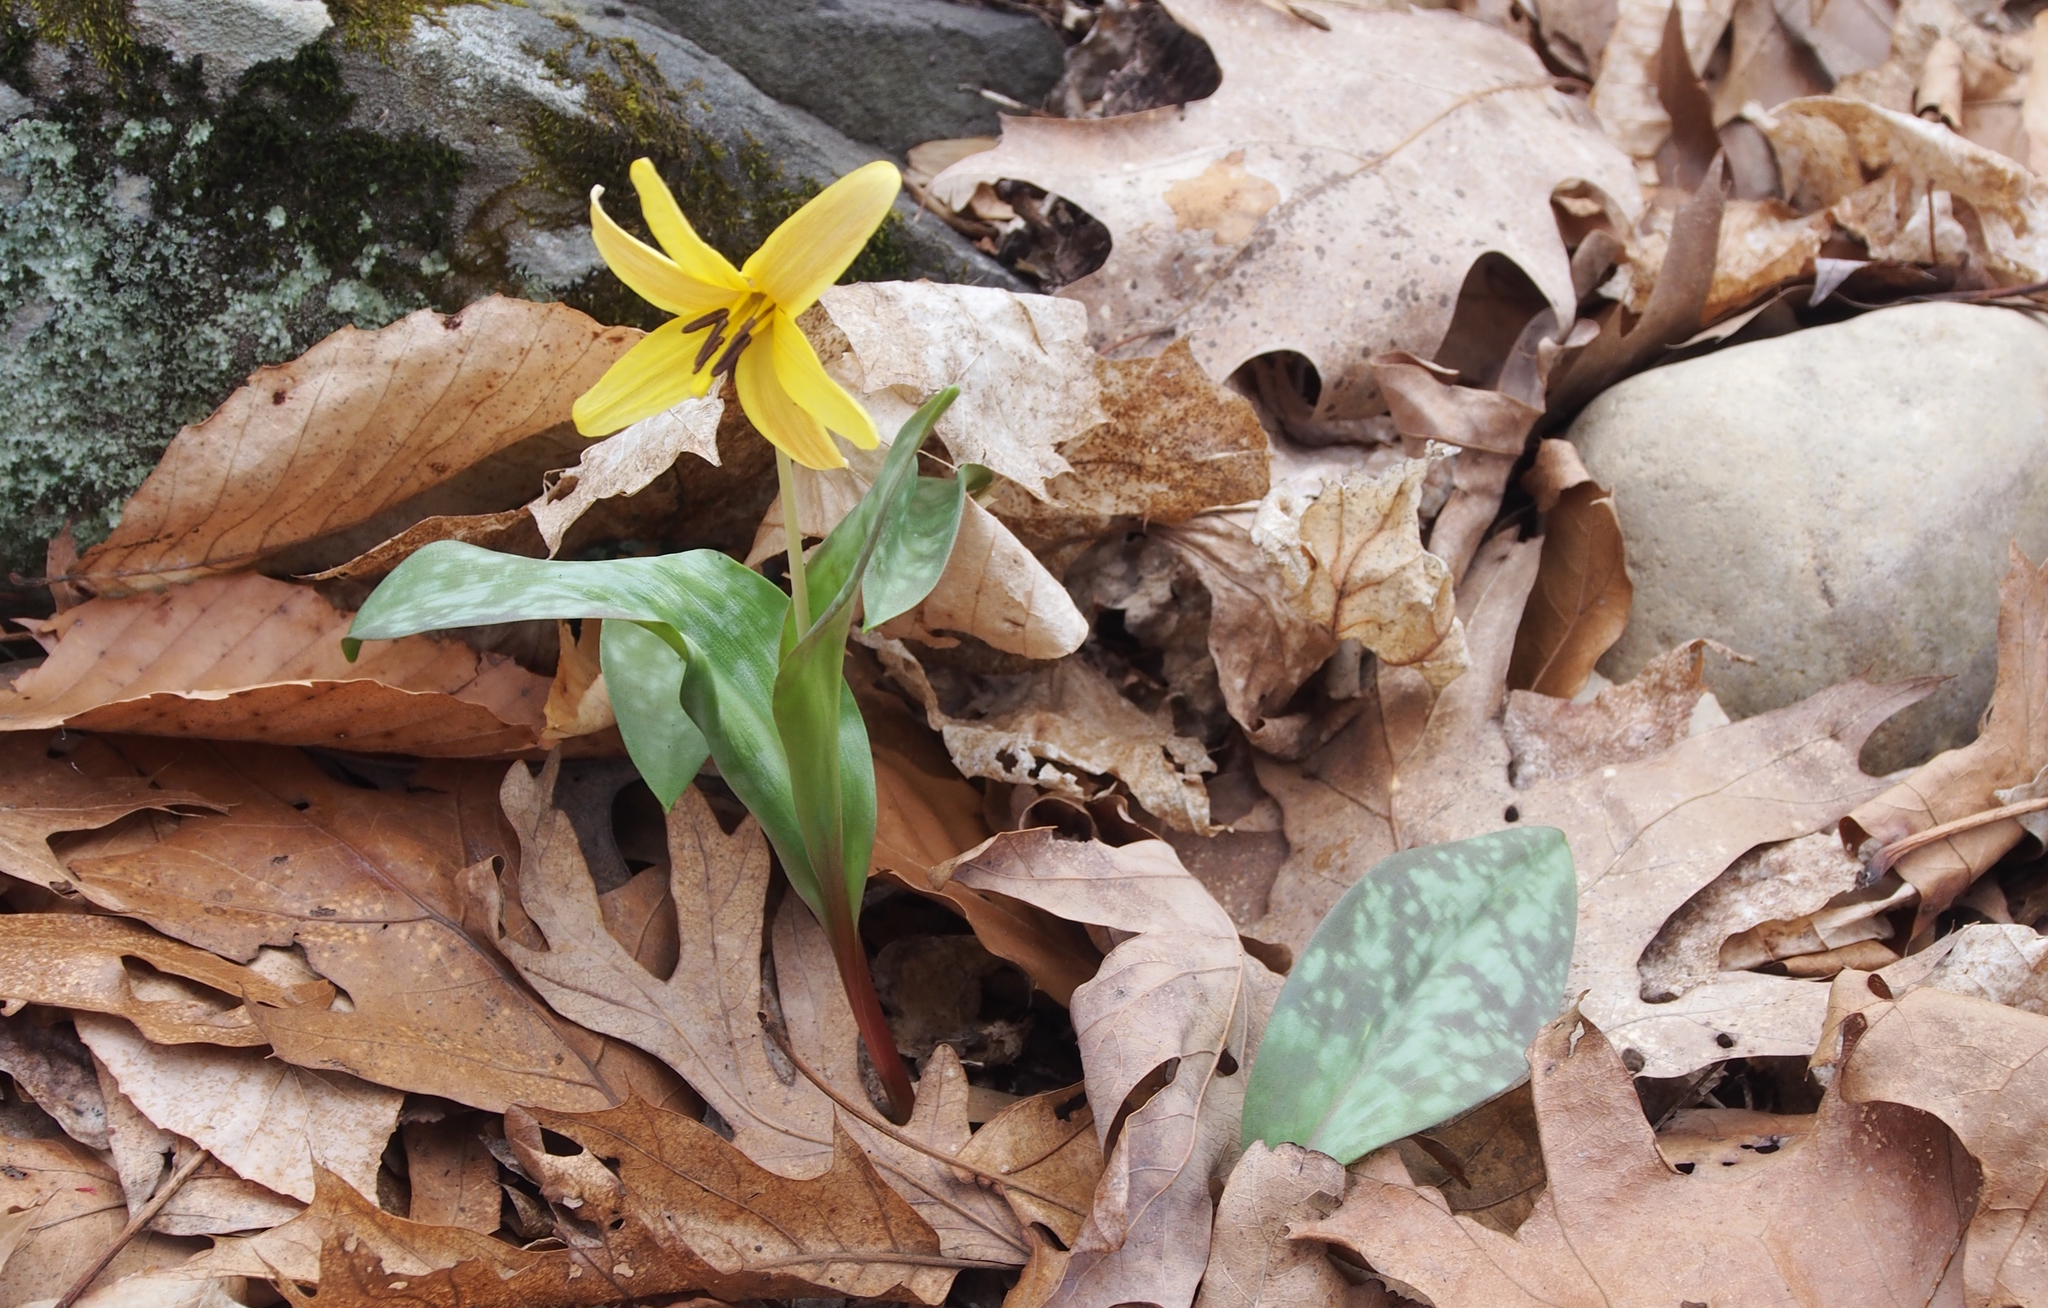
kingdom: Plantae
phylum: Tracheophyta
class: Liliopsida
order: Liliales
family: Liliaceae
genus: Erythronium
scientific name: Erythronium americanum
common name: Yellow adder's-tongue
